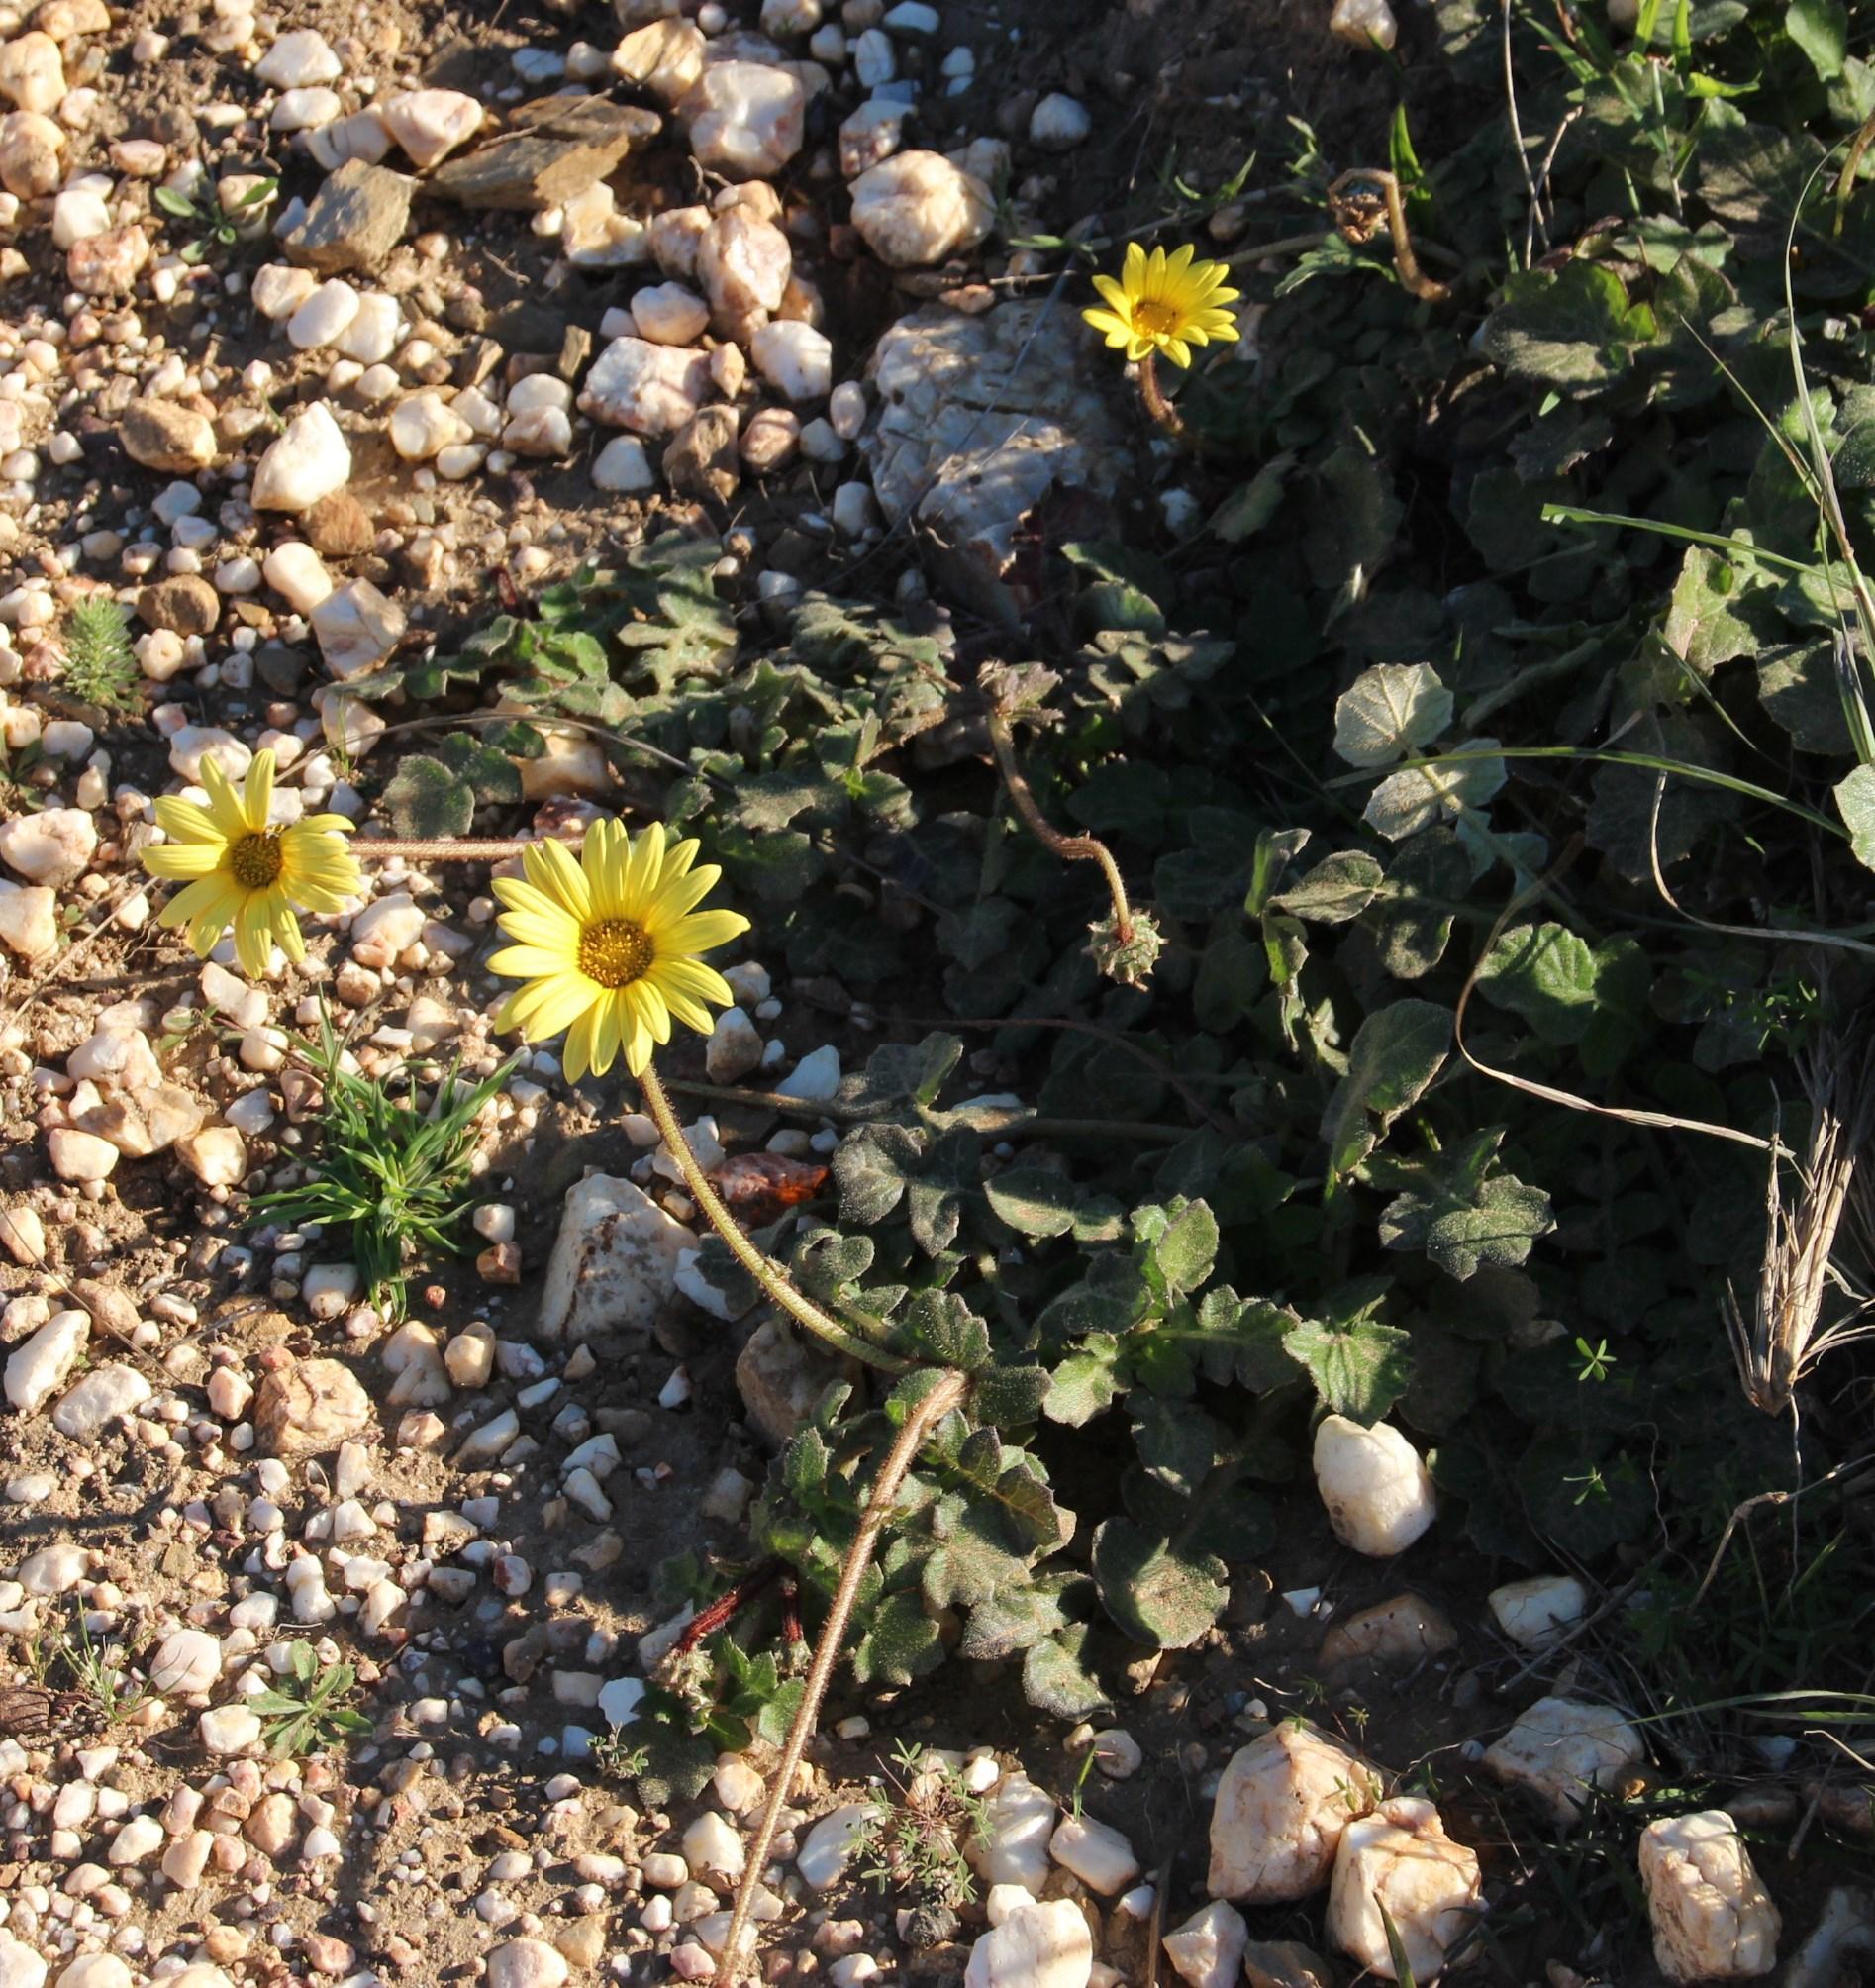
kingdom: Plantae
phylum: Tracheophyta
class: Magnoliopsida
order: Asterales
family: Asteraceae
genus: Arctotheca
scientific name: Arctotheca prostrata
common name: Capeweed
